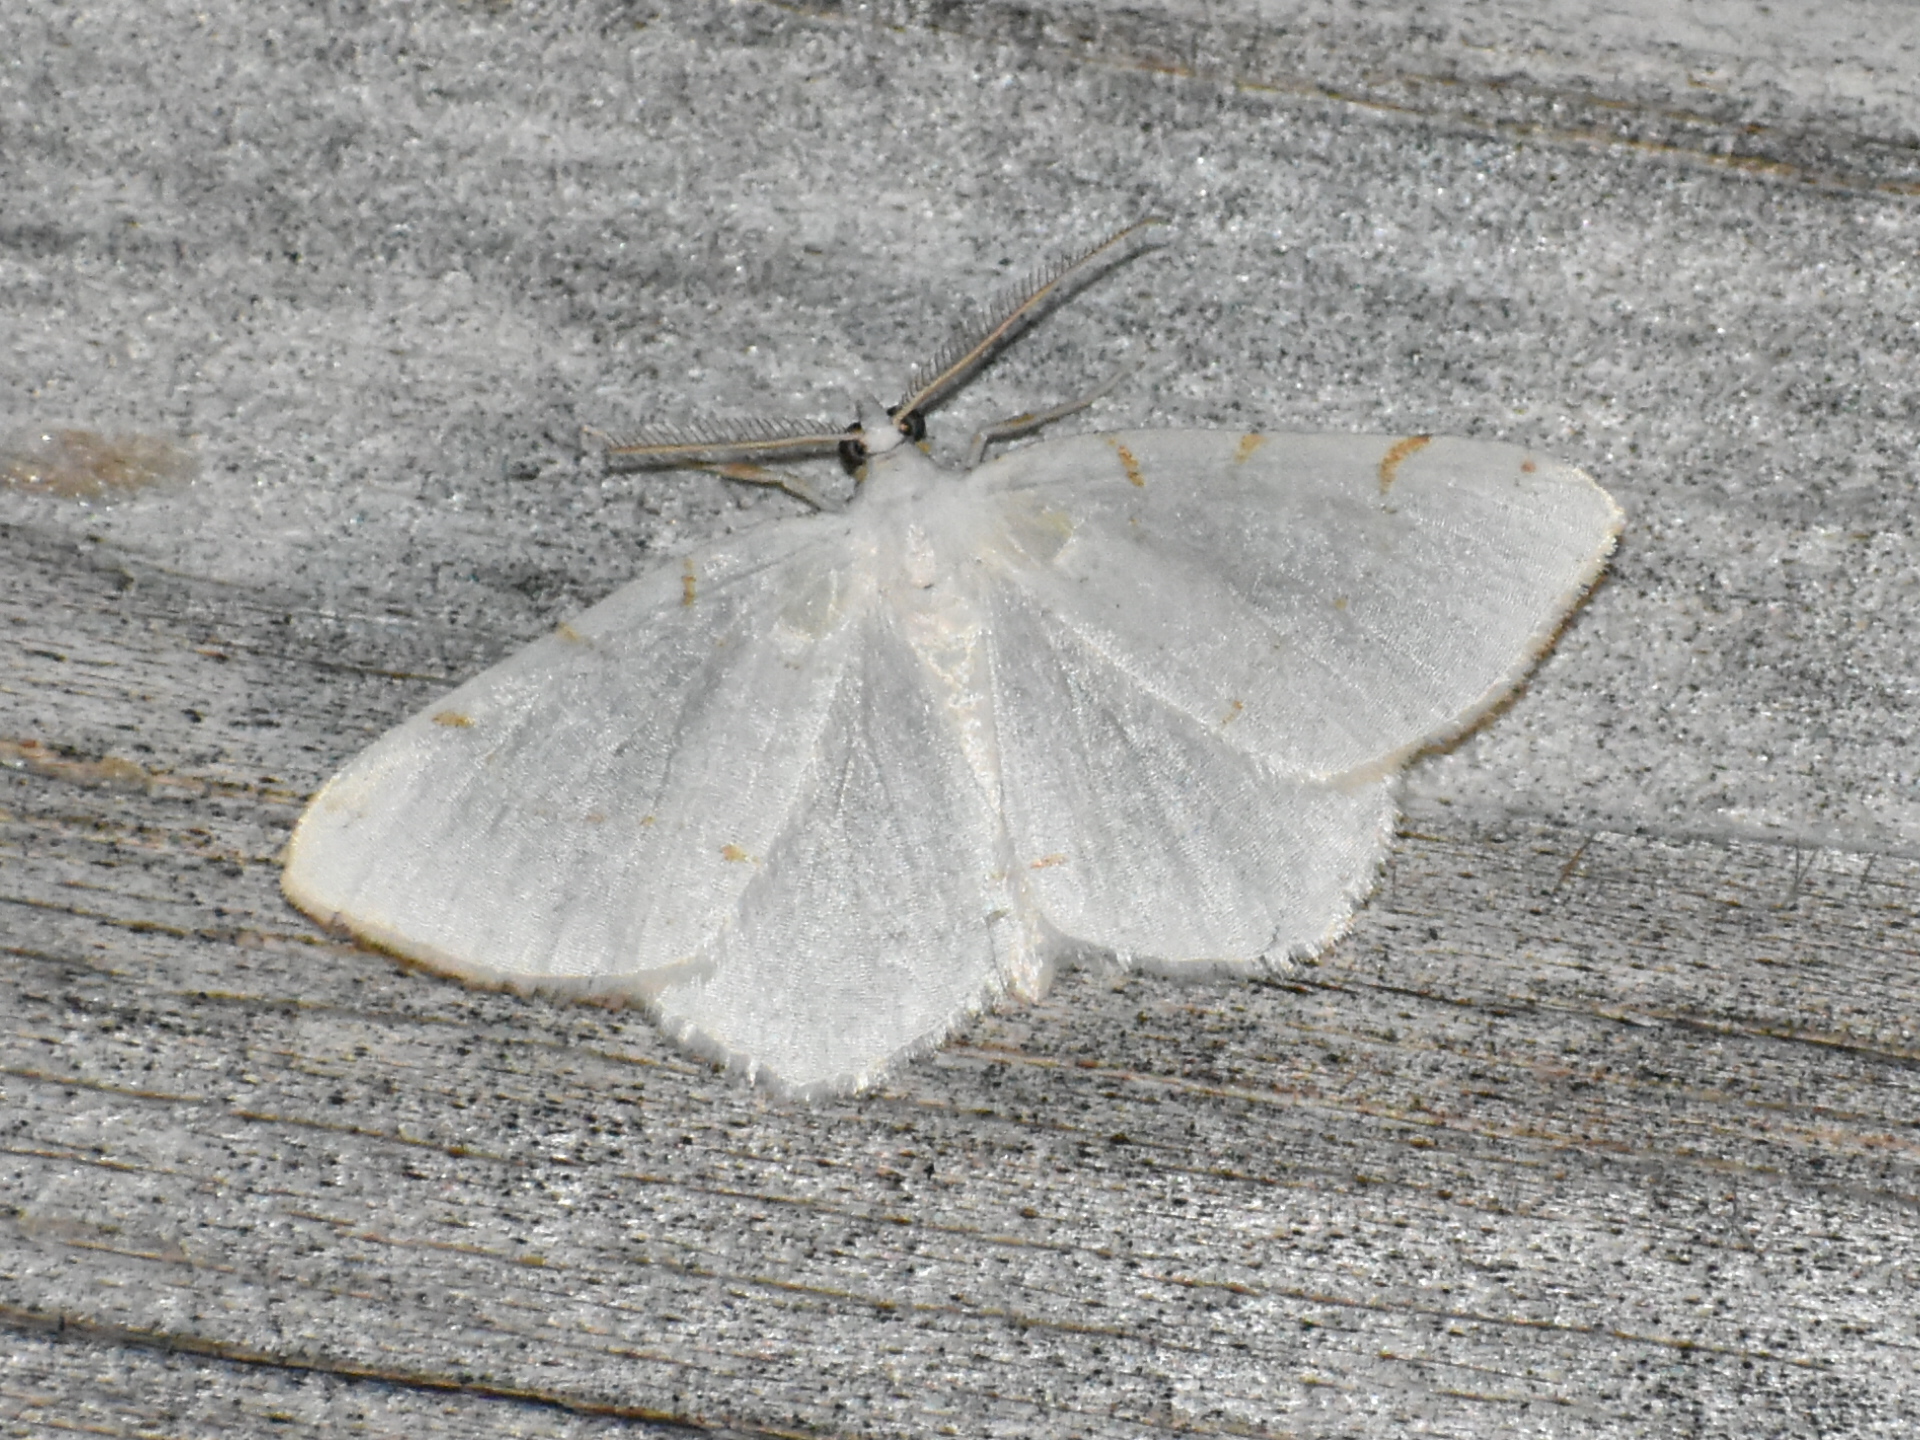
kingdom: Animalia
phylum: Arthropoda
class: Insecta
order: Lepidoptera
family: Geometridae
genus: Macaria
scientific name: Macaria pustularia
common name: Lesser maple spanworm moth
